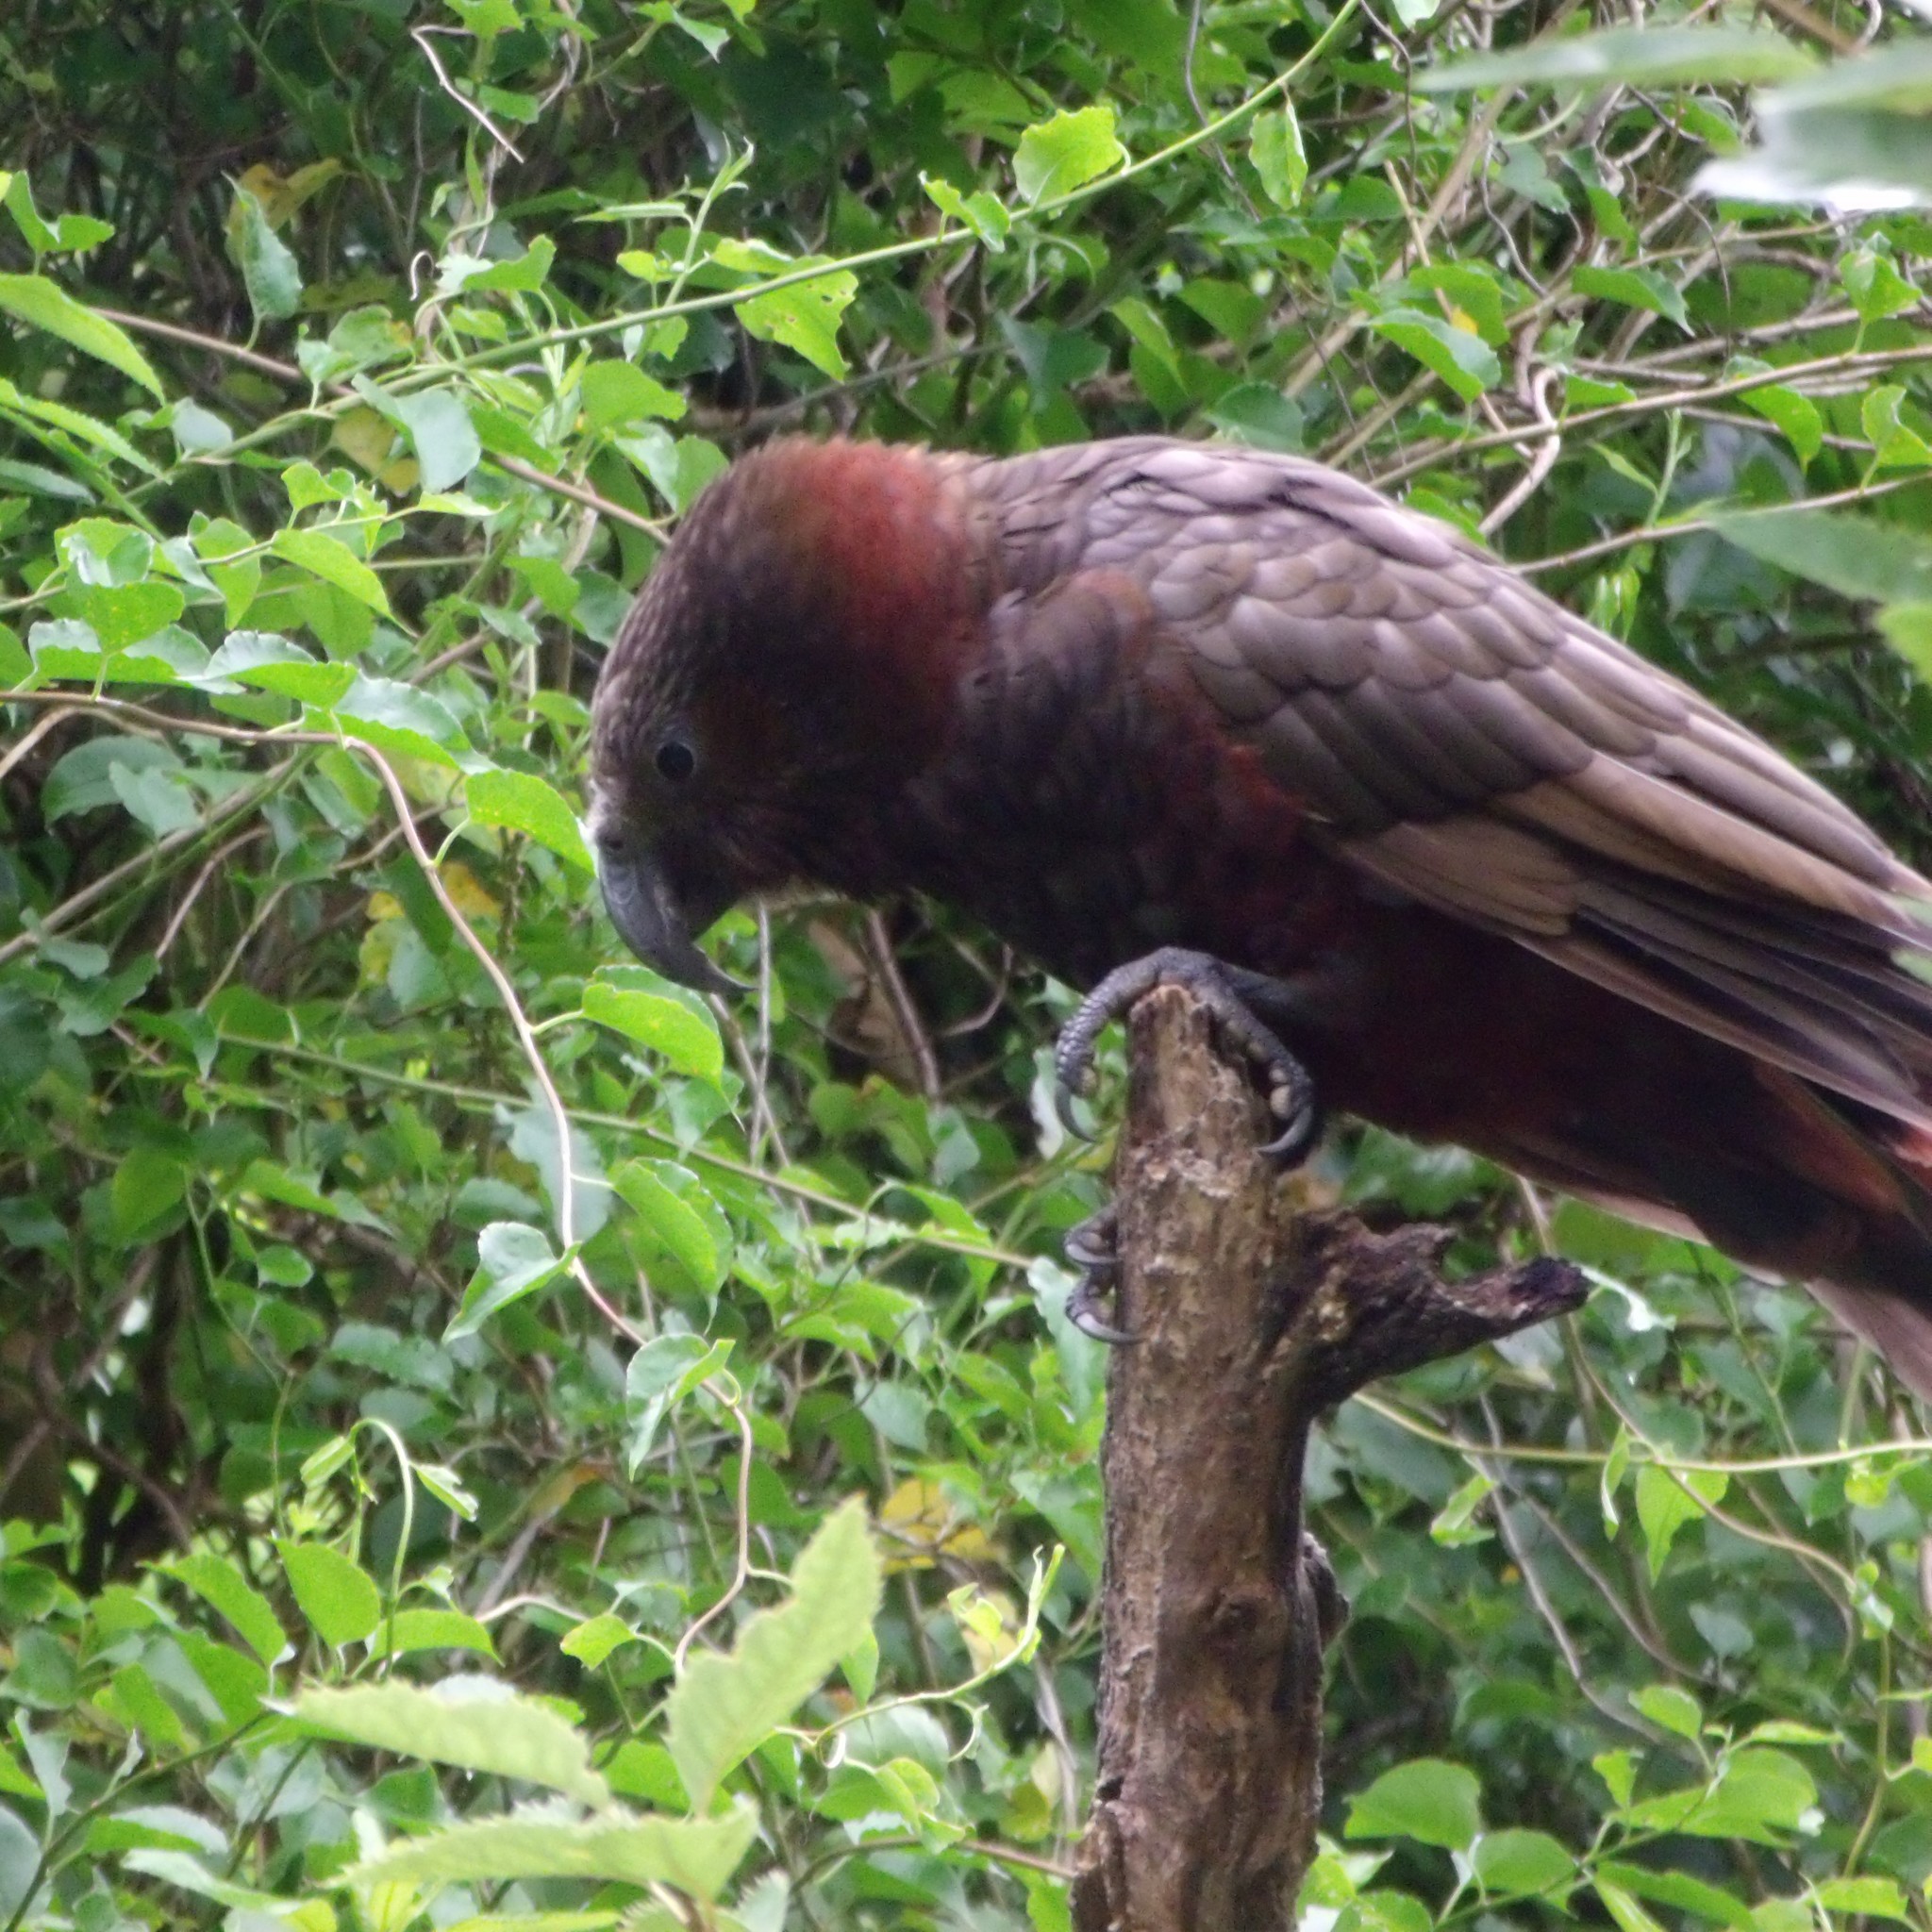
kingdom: Animalia
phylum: Chordata
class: Aves
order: Psittaciformes
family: Psittacidae
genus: Nestor
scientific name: Nestor meridionalis
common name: New zealand kaka
